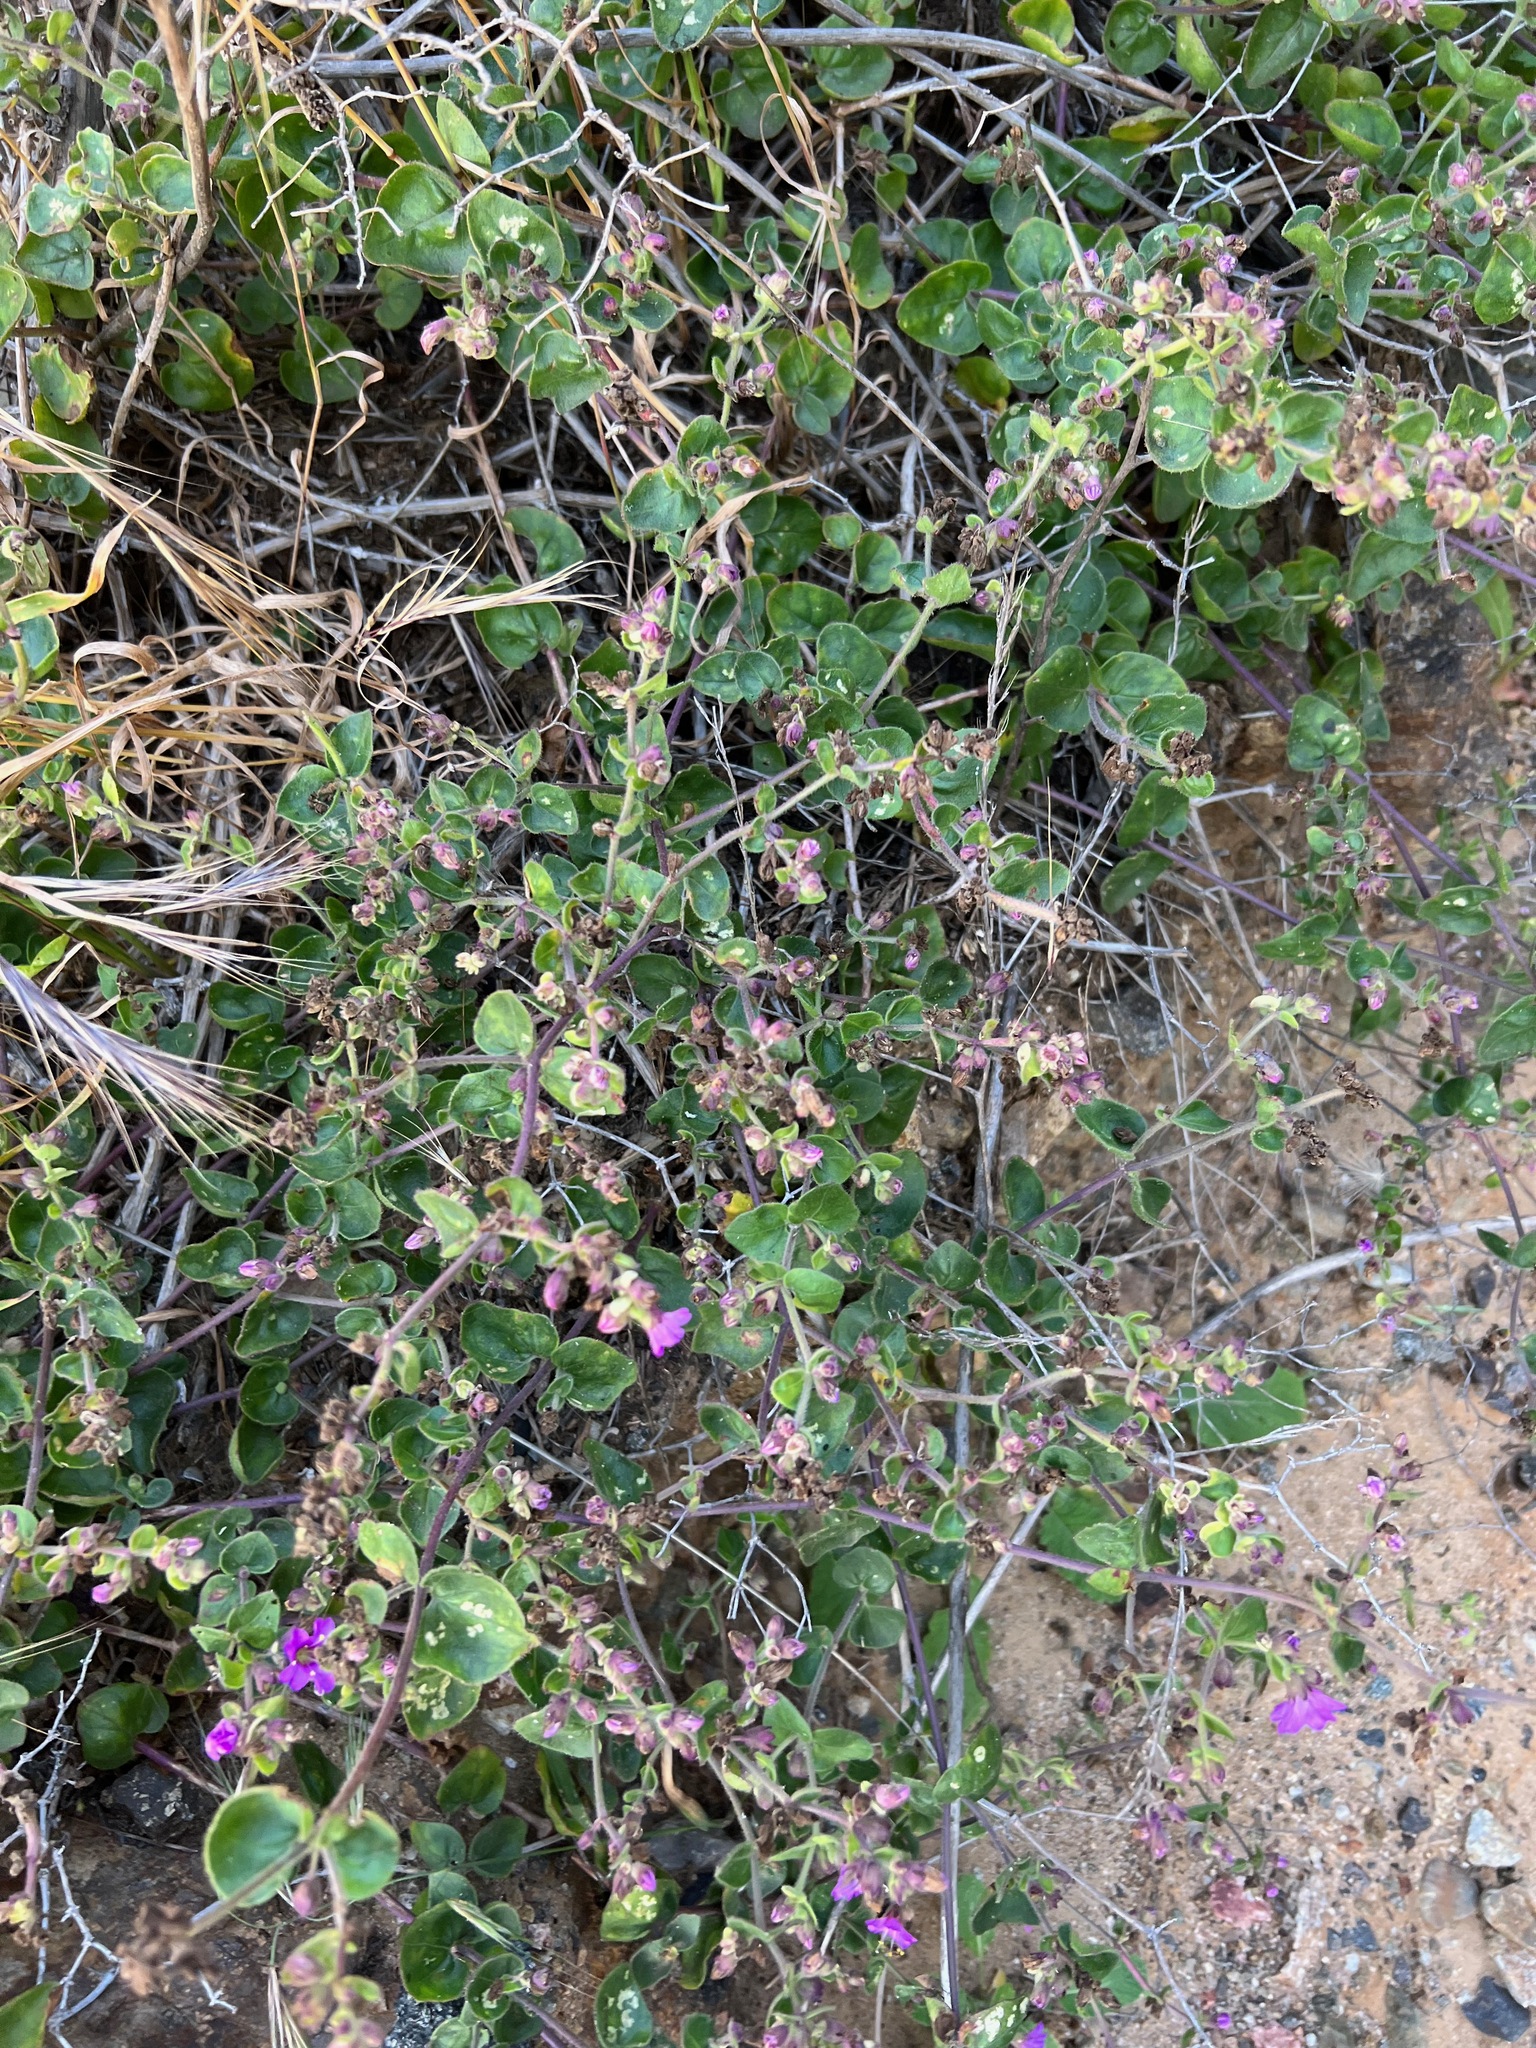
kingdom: Plantae
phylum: Tracheophyta
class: Magnoliopsida
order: Caryophyllales
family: Nyctaginaceae
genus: Mirabilis
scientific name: Mirabilis laevis
